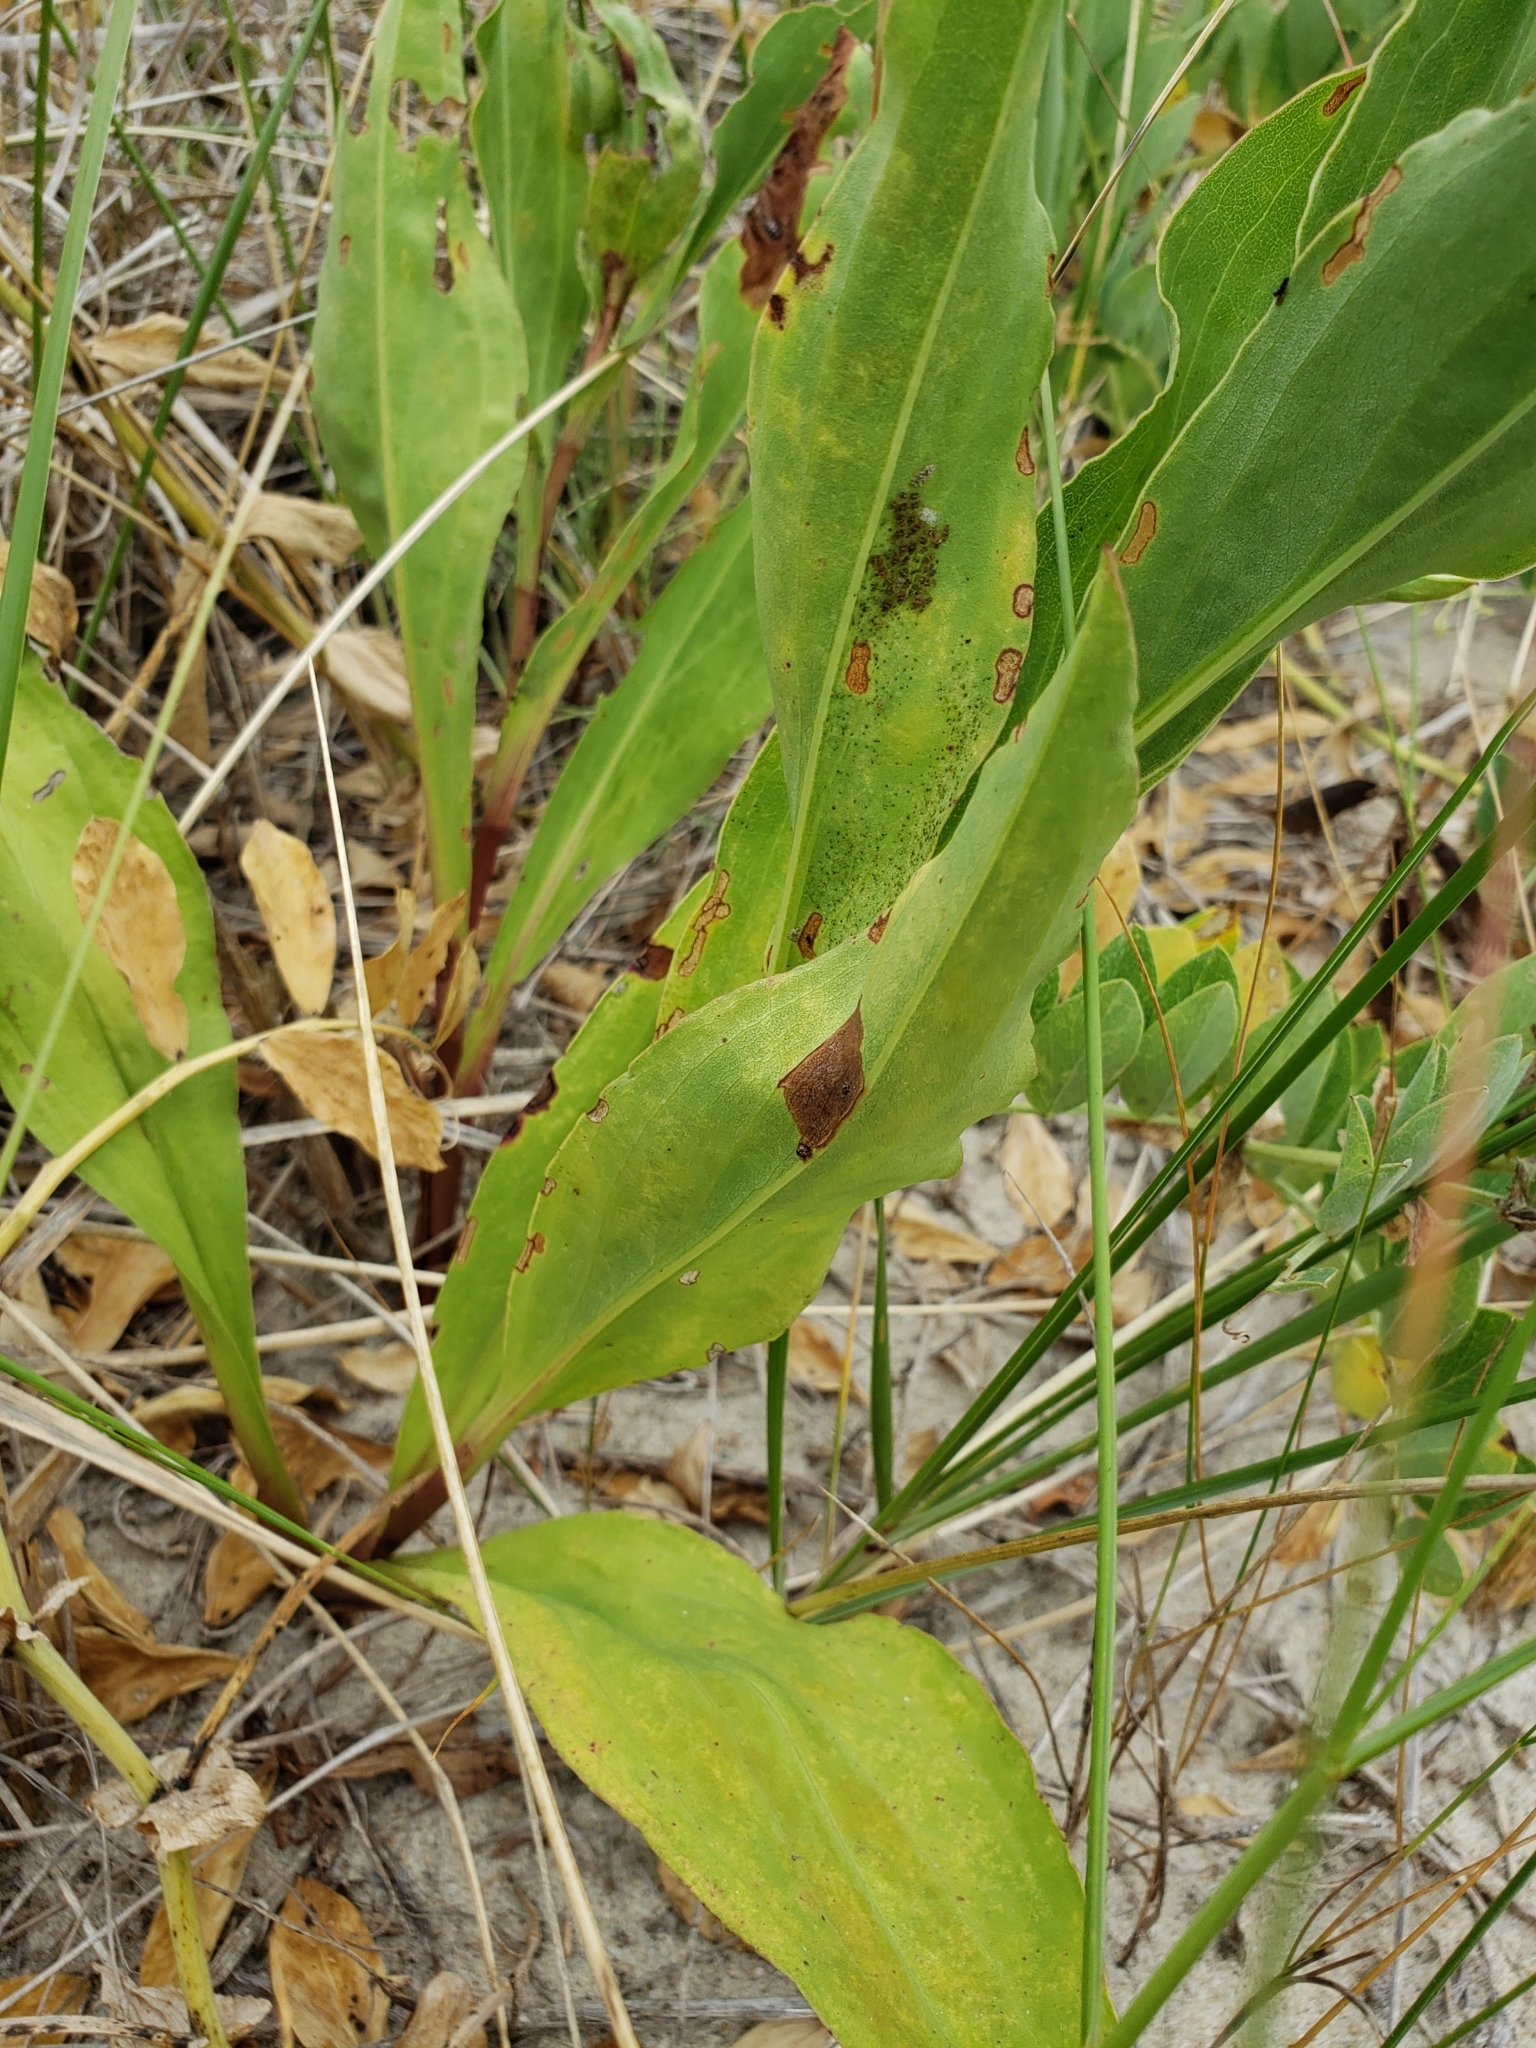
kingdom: Plantae
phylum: Tracheophyta
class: Magnoliopsida
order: Asterales
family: Asteraceae
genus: Solidago
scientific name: Solidago sempervirens
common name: Salt-marsh goldenrod
